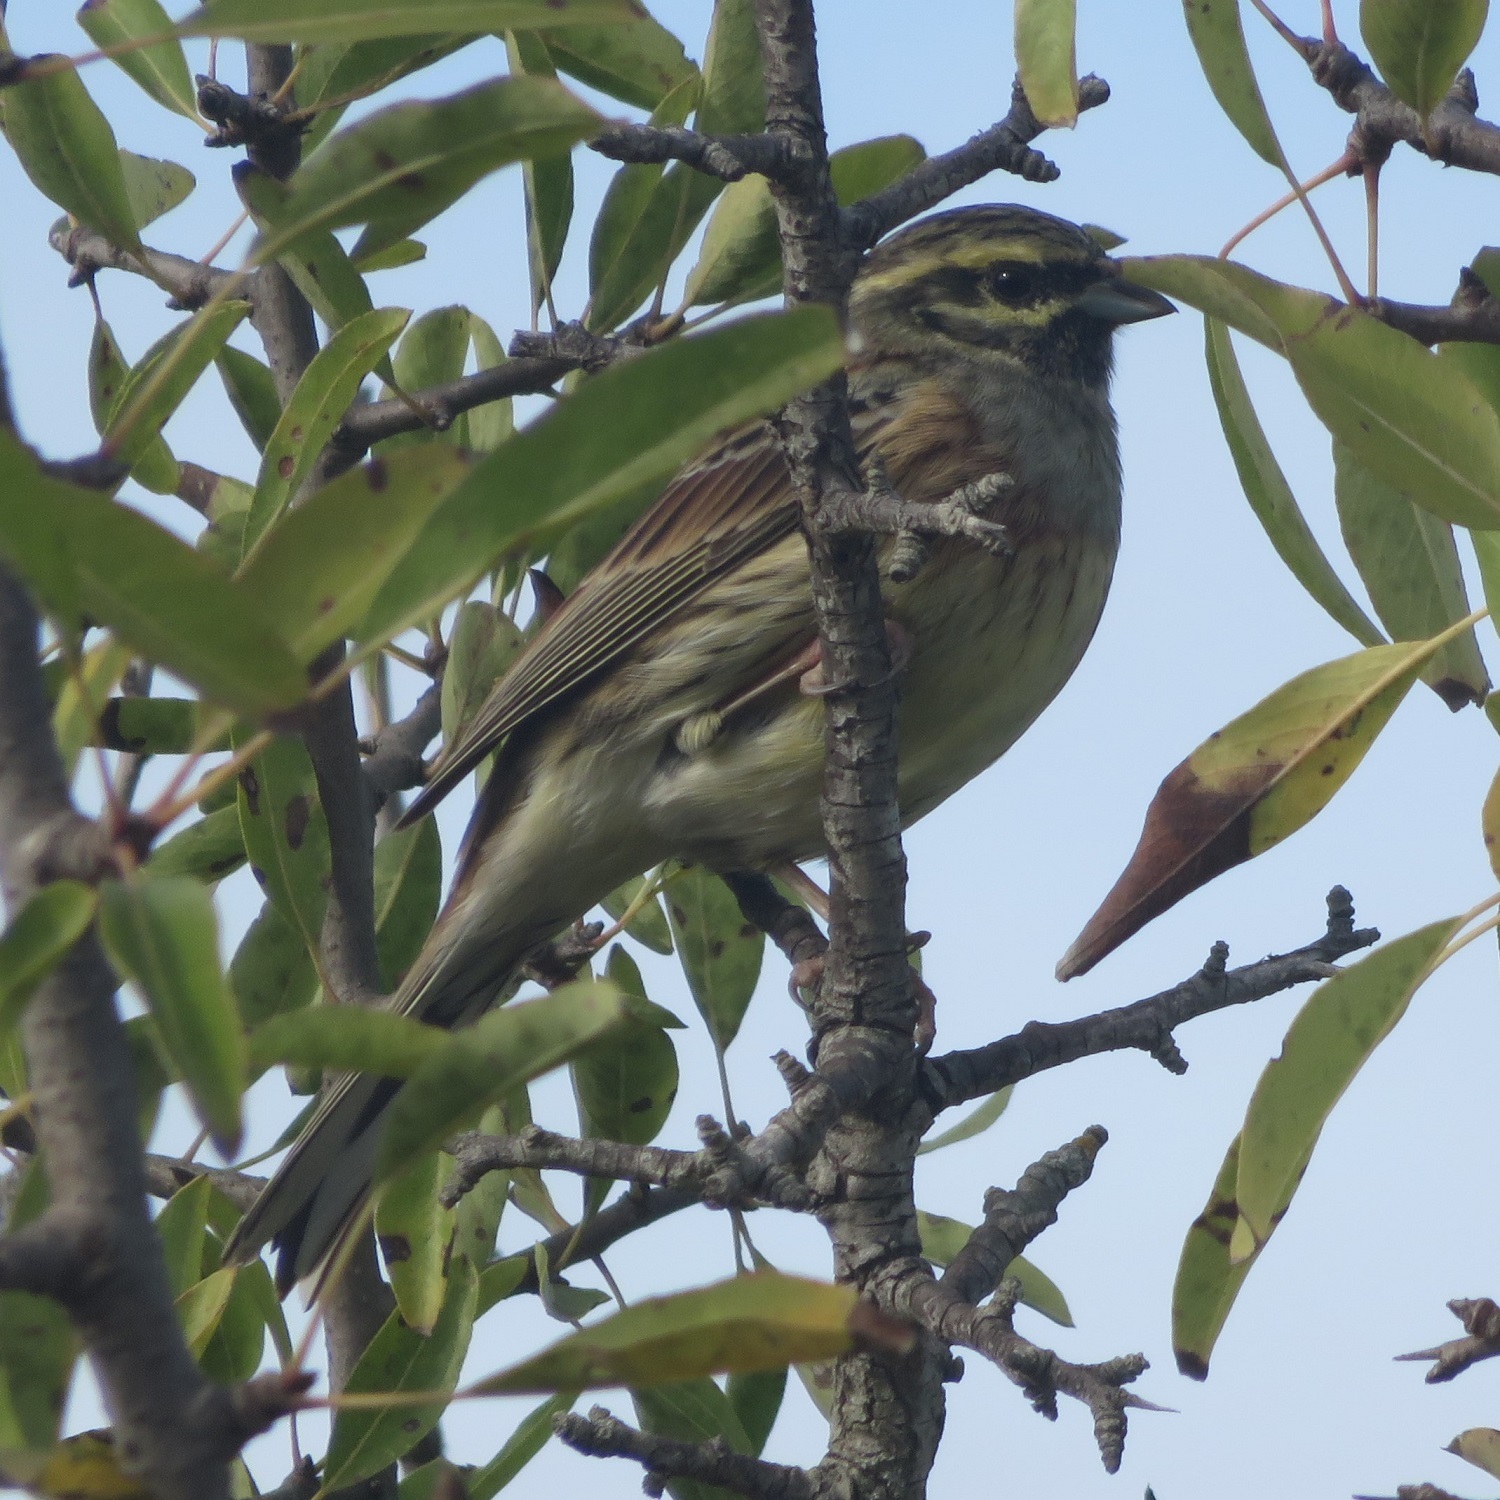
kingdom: Animalia
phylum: Chordata
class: Aves
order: Passeriformes
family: Emberizidae
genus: Emberiza
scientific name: Emberiza cirlus
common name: Cirl bunting
